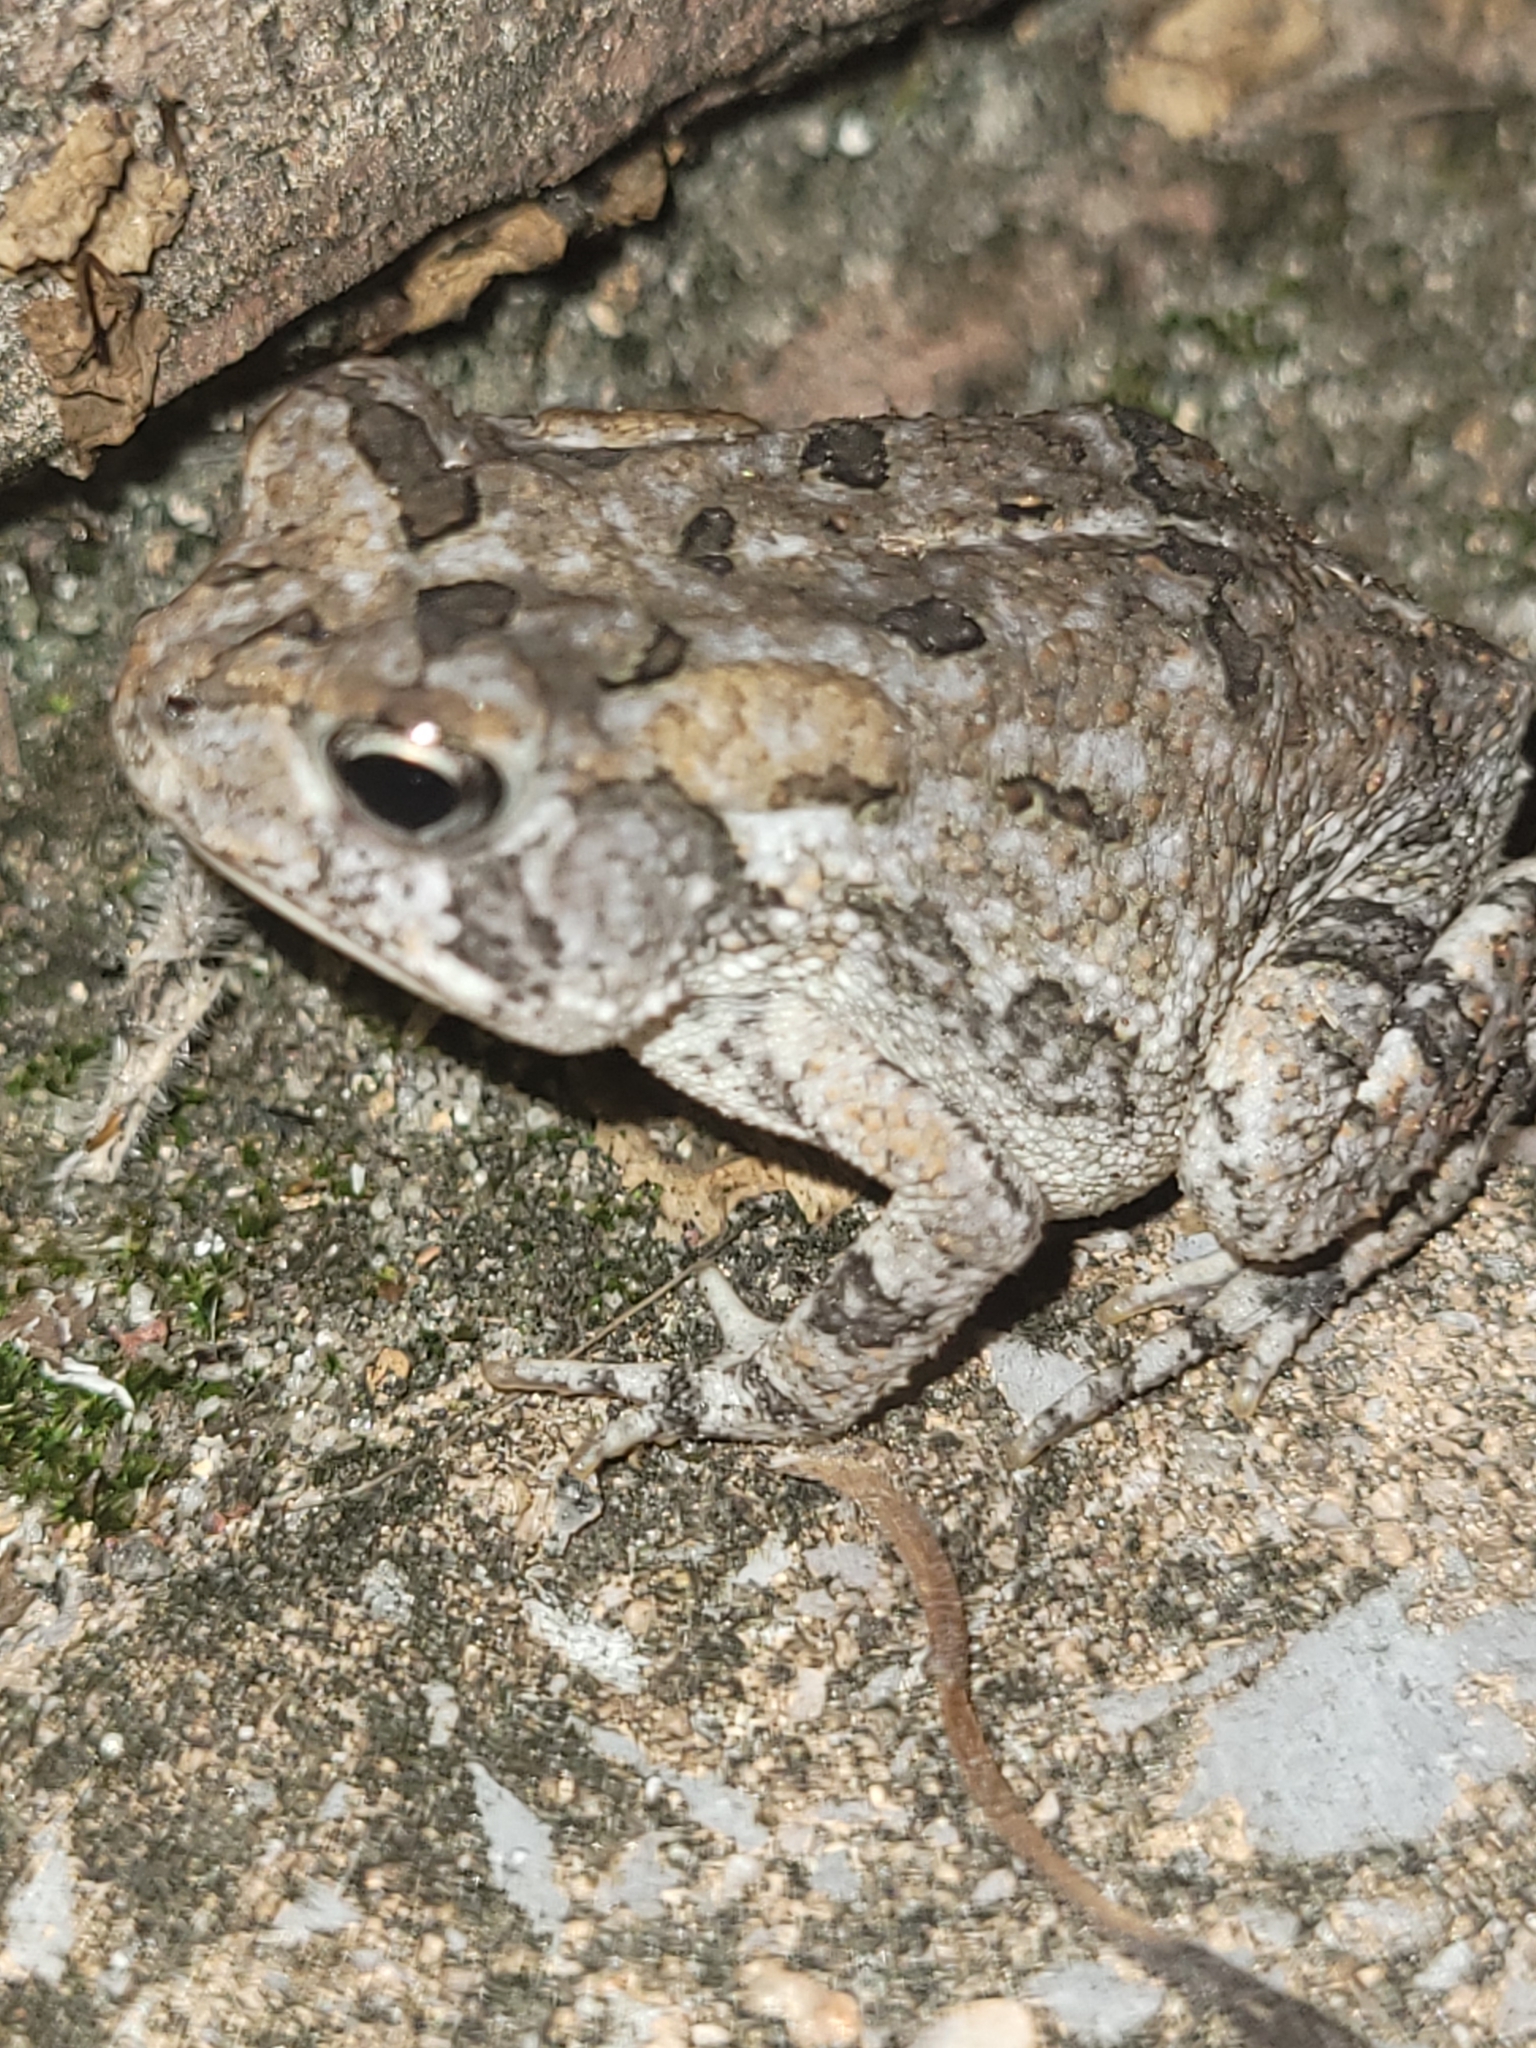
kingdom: Animalia
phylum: Chordata
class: Amphibia
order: Anura
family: Bufonidae
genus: Anaxyrus
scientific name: Anaxyrus terrestris
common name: Southern toad
